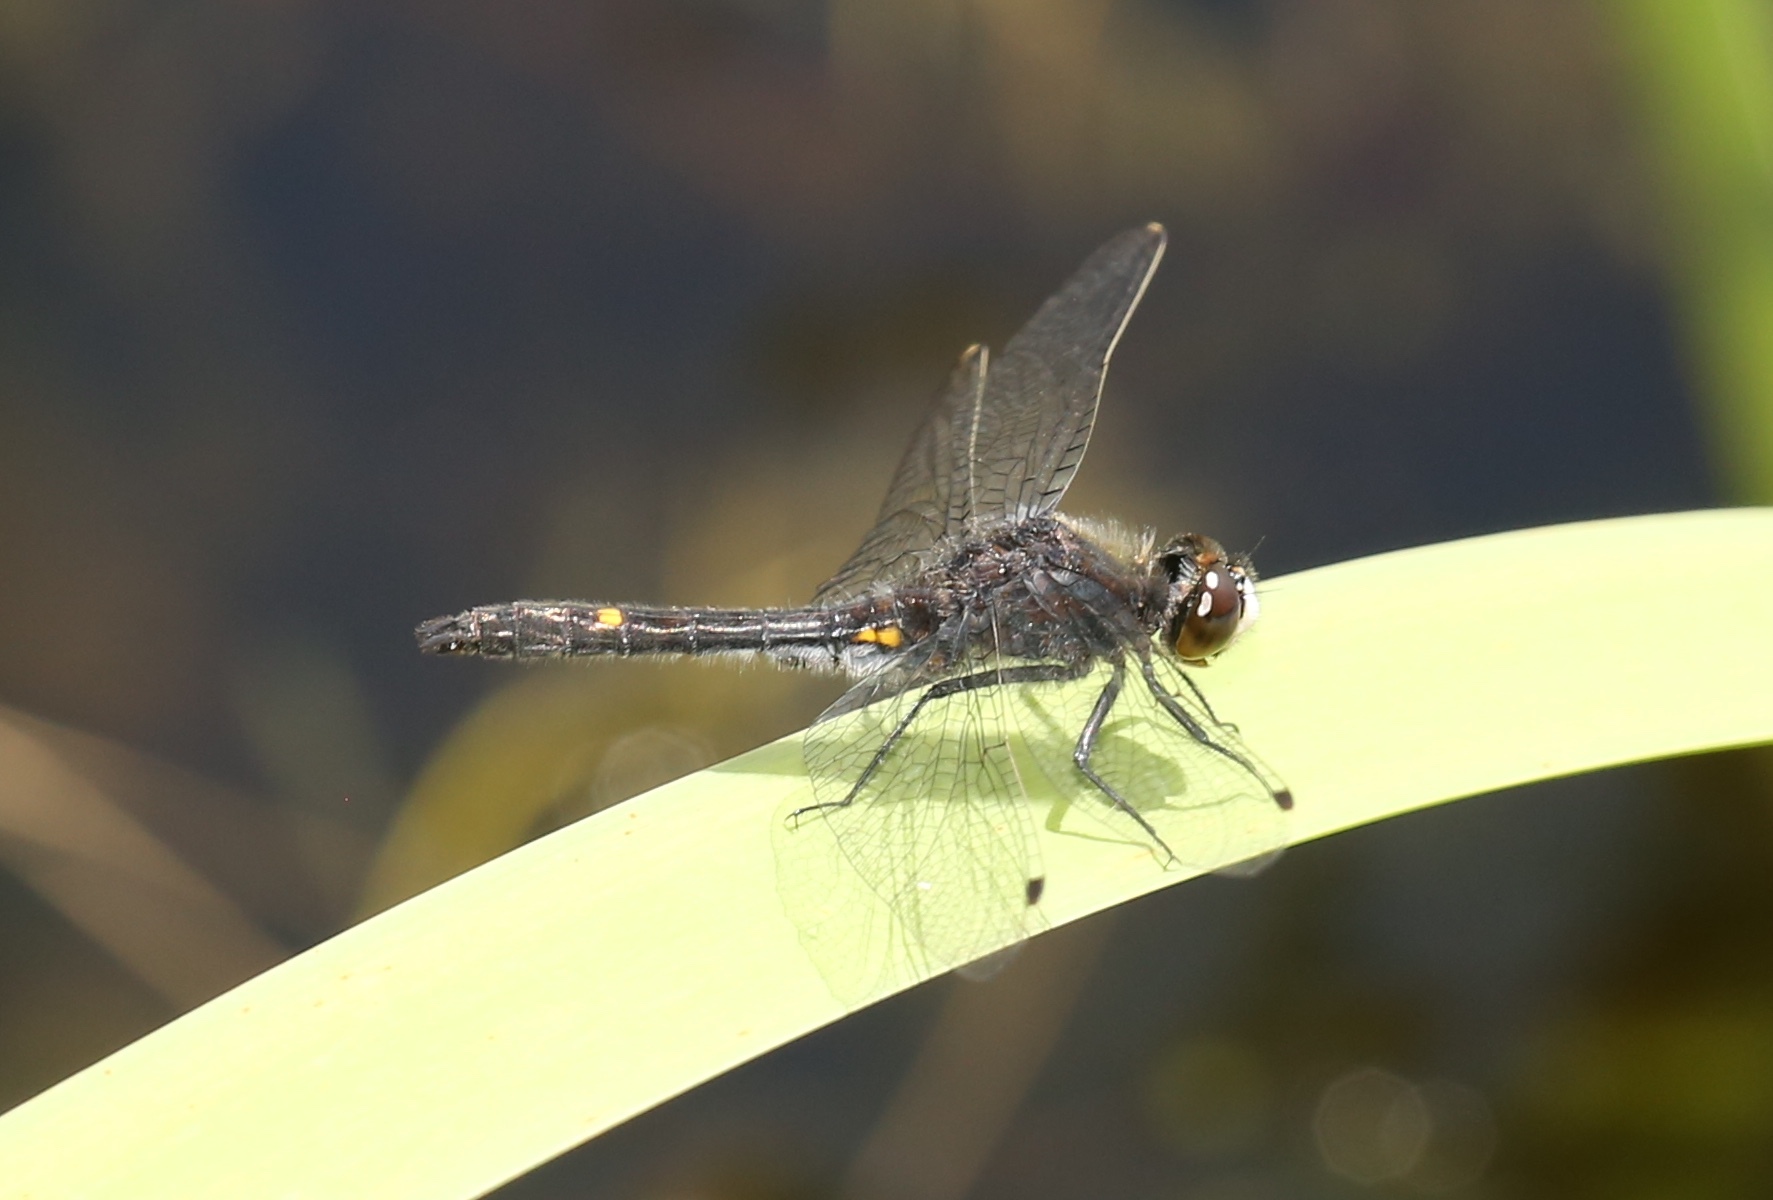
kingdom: Animalia
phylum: Arthropoda
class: Insecta
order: Odonata
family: Libellulidae
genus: Leucorrhinia
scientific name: Leucorrhinia intacta
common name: Dot-tailed whiteface
